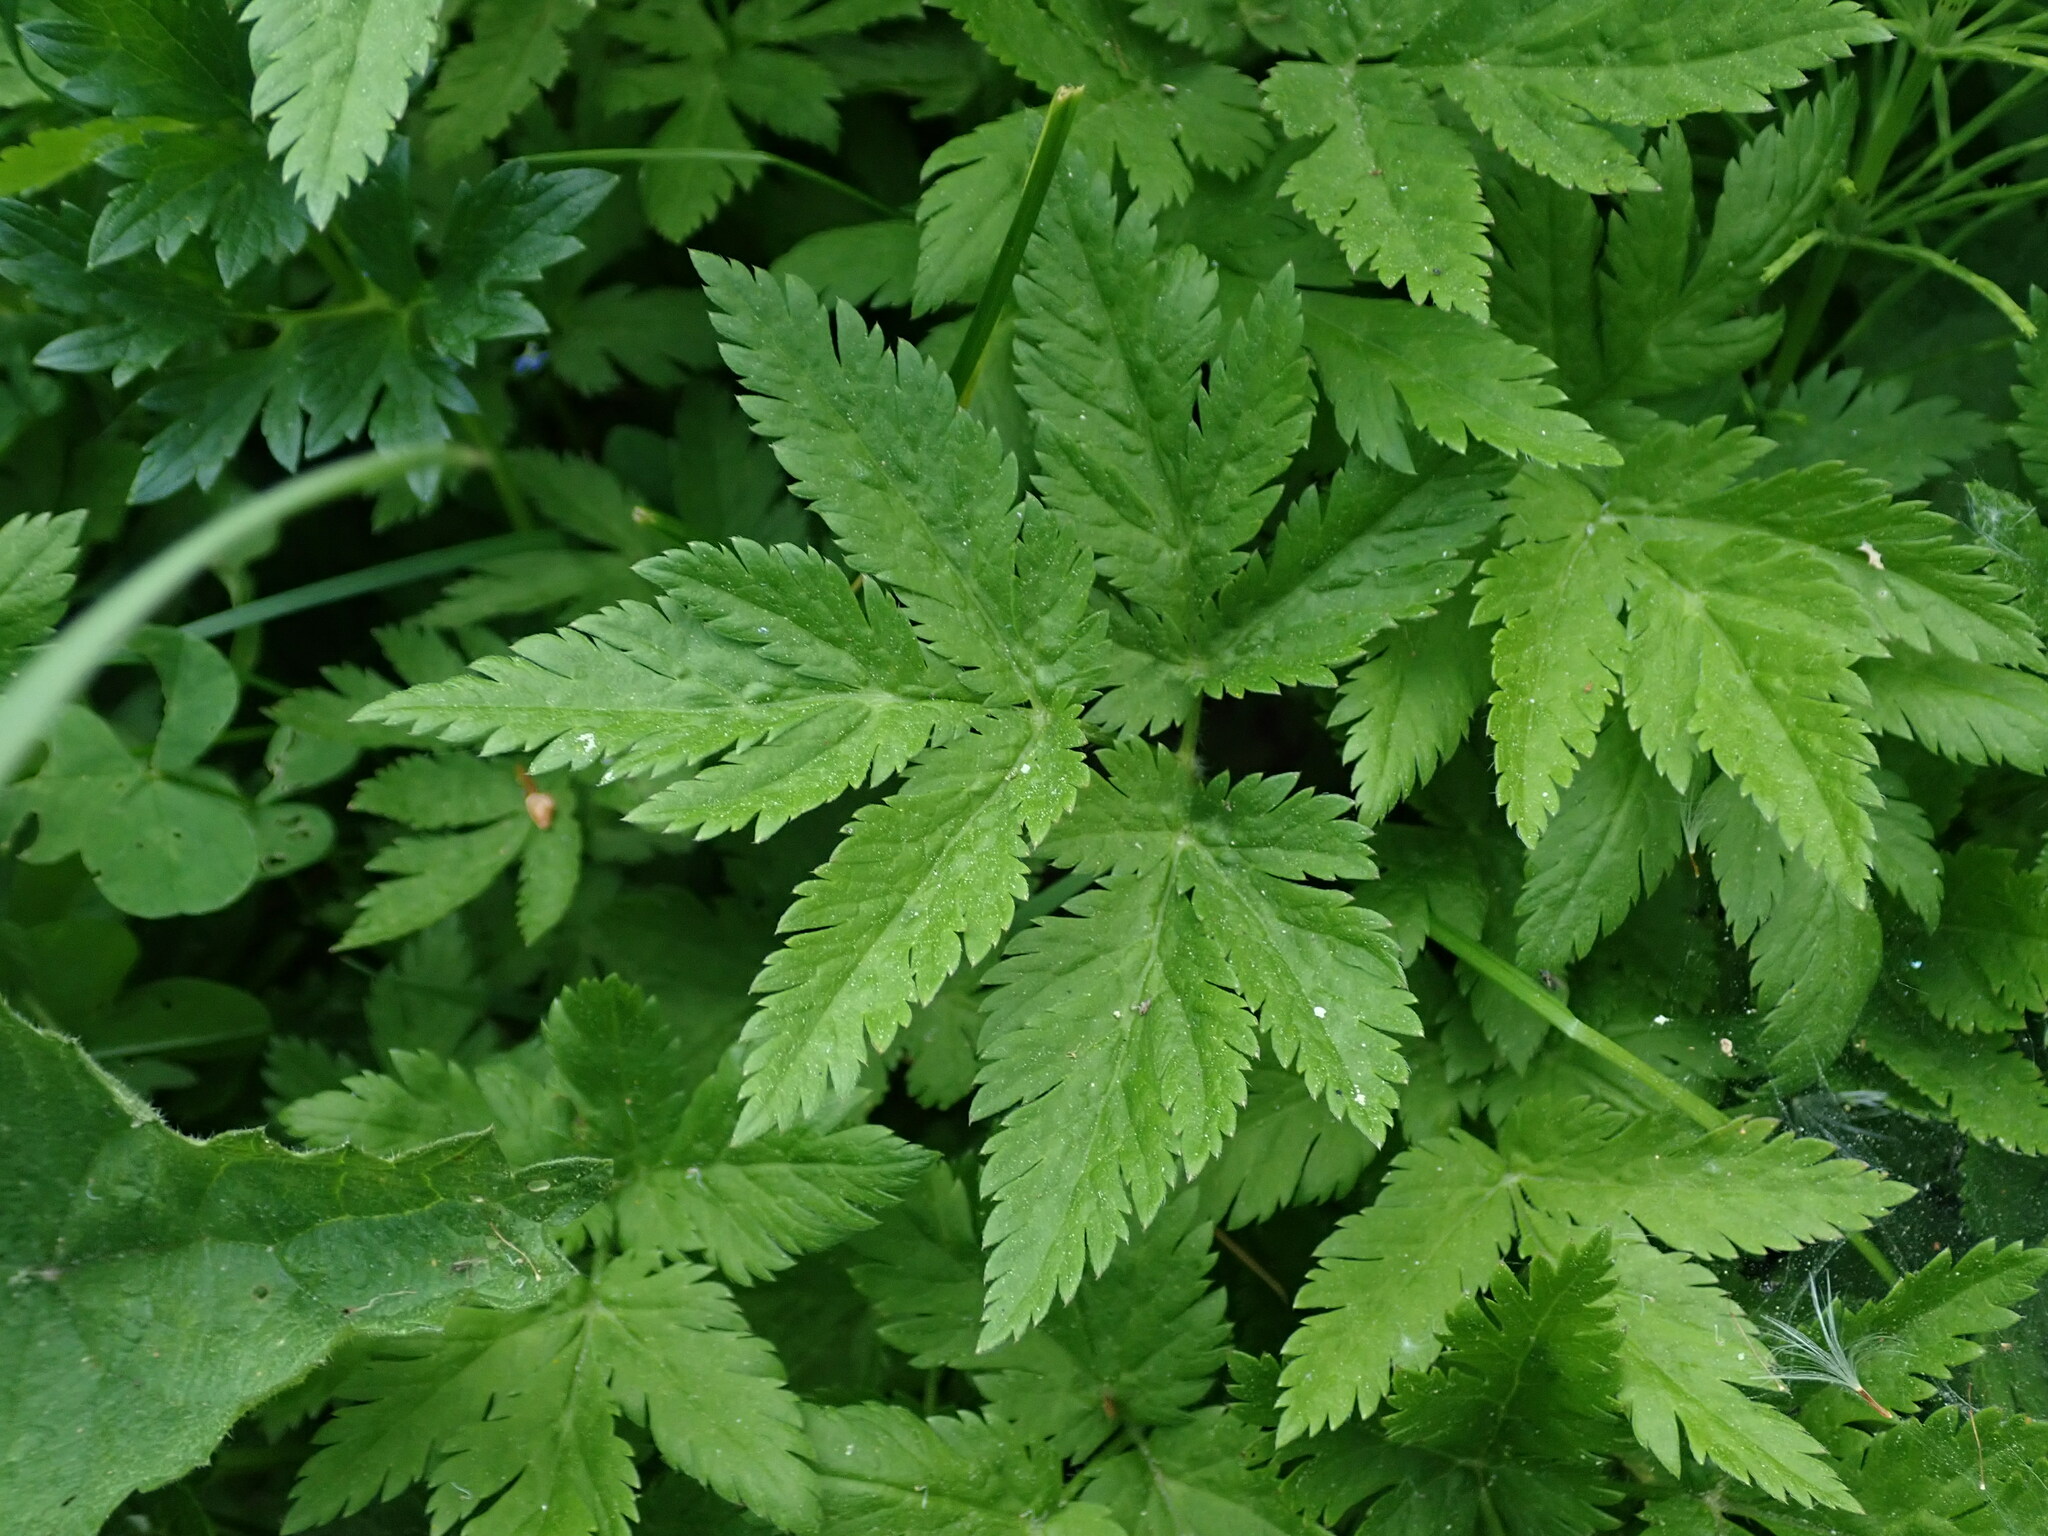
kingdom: Plantae
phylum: Tracheophyta
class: Magnoliopsida
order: Apiales
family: Apiaceae
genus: Chaerophyllum
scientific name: Chaerophyllum hirsutum
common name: Hairy chervil
